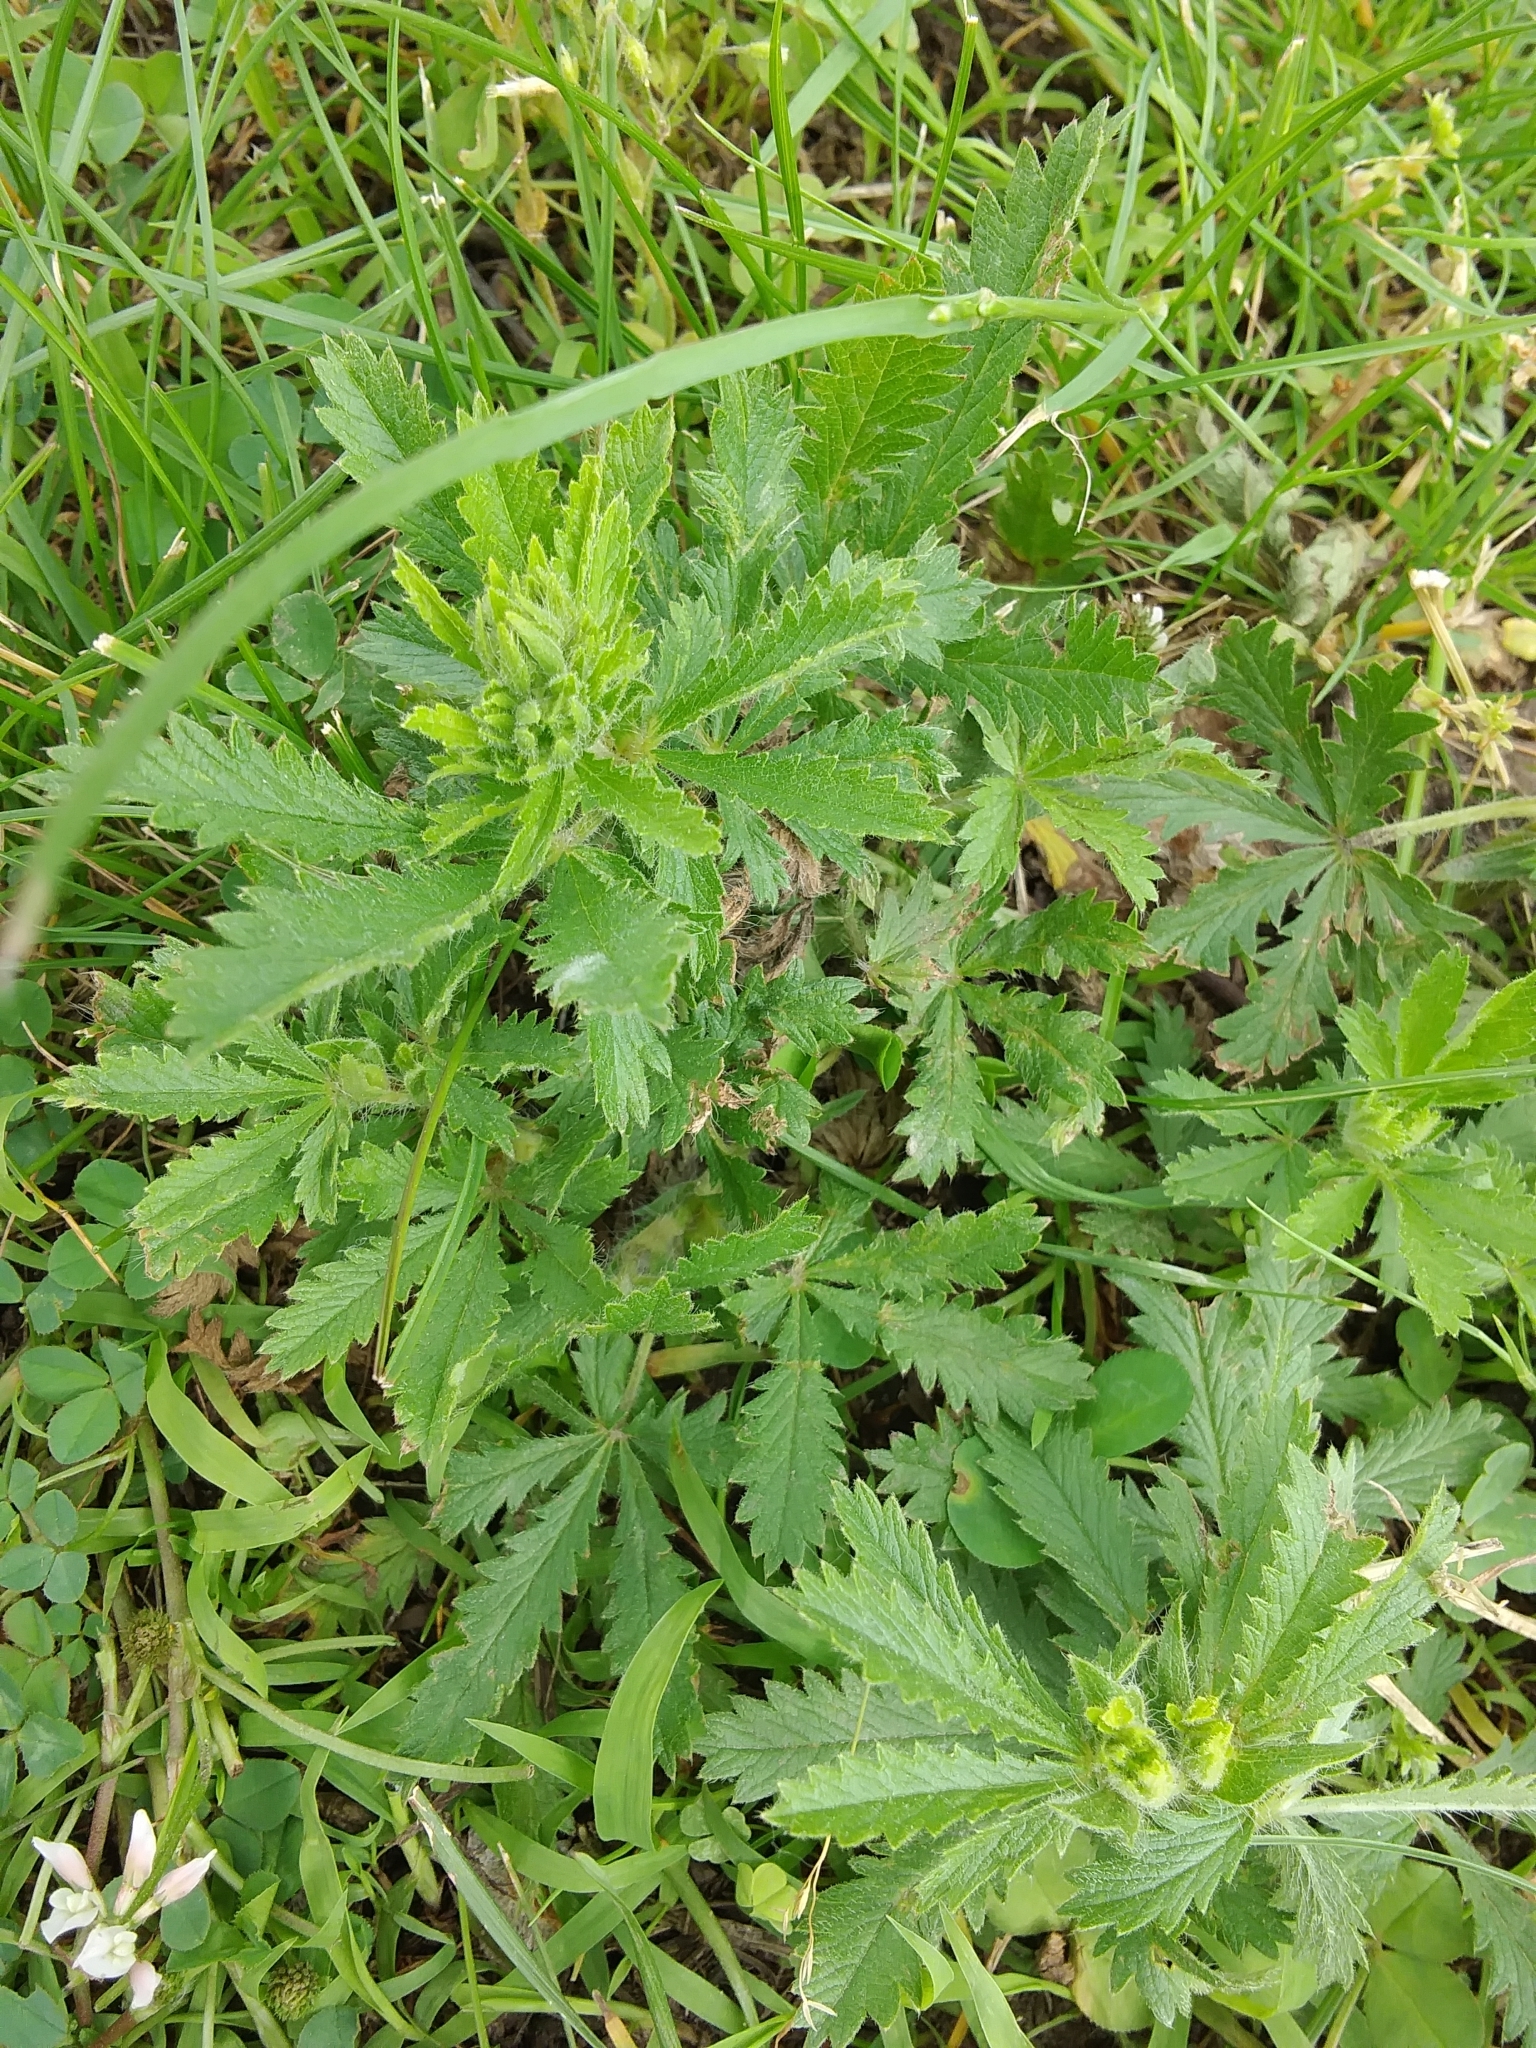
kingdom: Plantae
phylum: Tracheophyta
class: Magnoliopsida
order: Rosales
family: Rosaceae
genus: Potentilla
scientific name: Potentilla recta
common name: Sulphur cinquefoil
